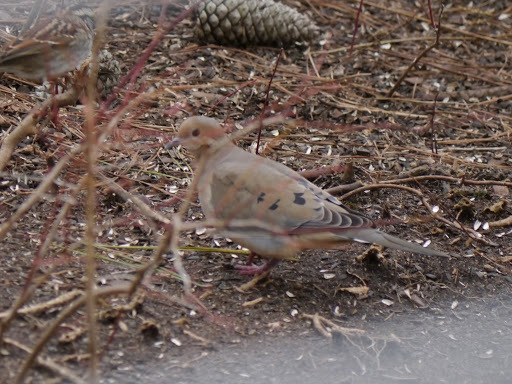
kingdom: Animalia
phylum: Chordata
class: Aves
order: Columbiformes
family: Columbidae
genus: Zenaida
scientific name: Zenaida macroura
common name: Mourning dove
